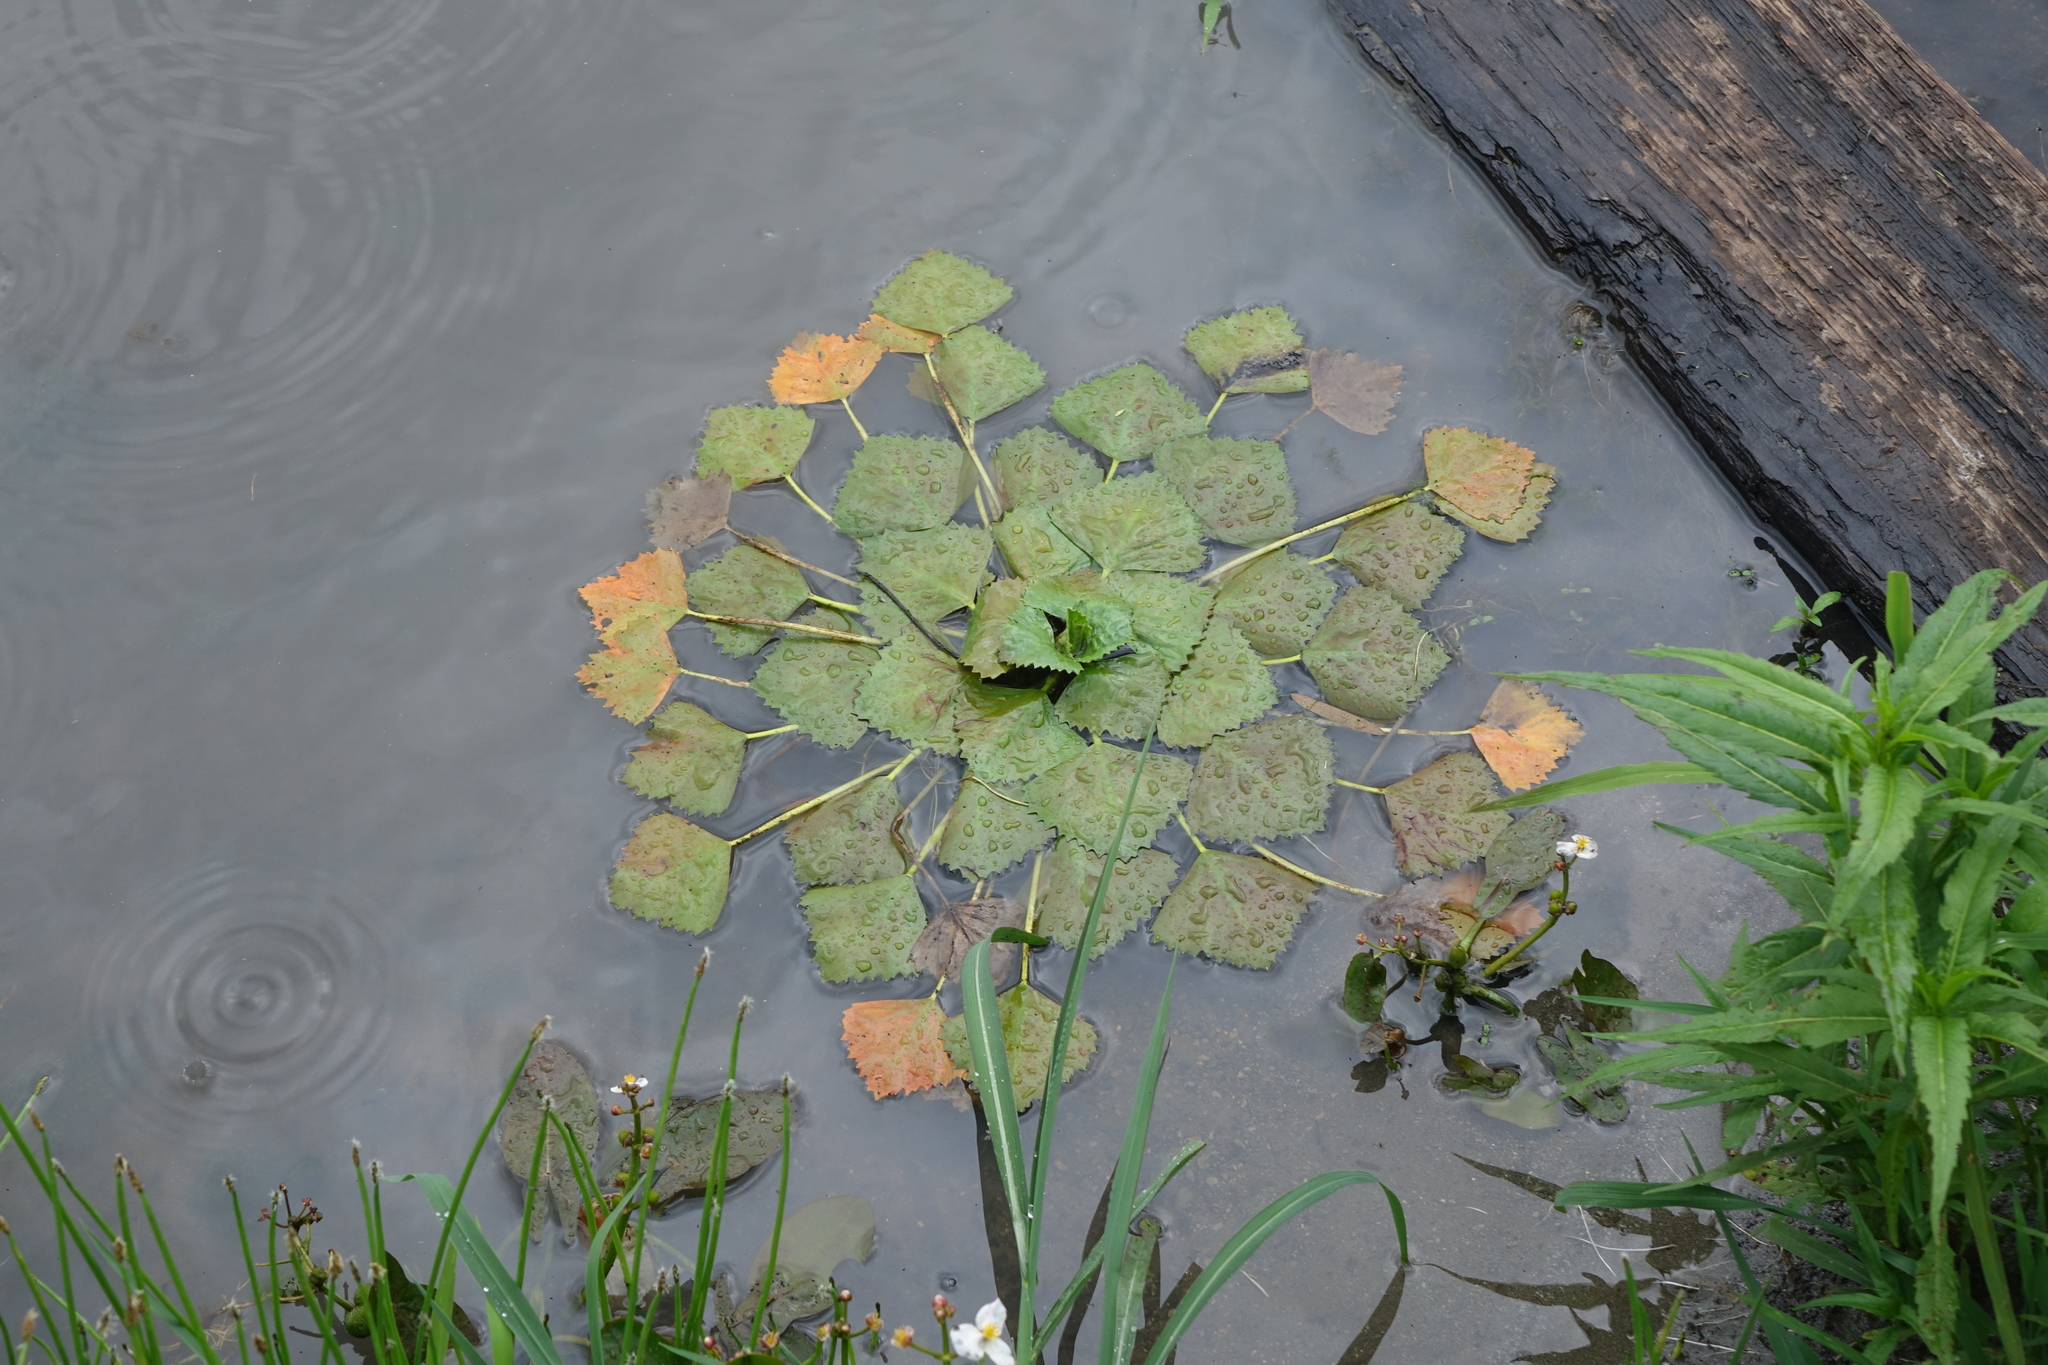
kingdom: Plantae
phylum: Tracheophyta
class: Magnoliopsida
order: Myrtales
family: Lythraceae
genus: Trapa
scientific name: Trapa natans
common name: Water chestnut
